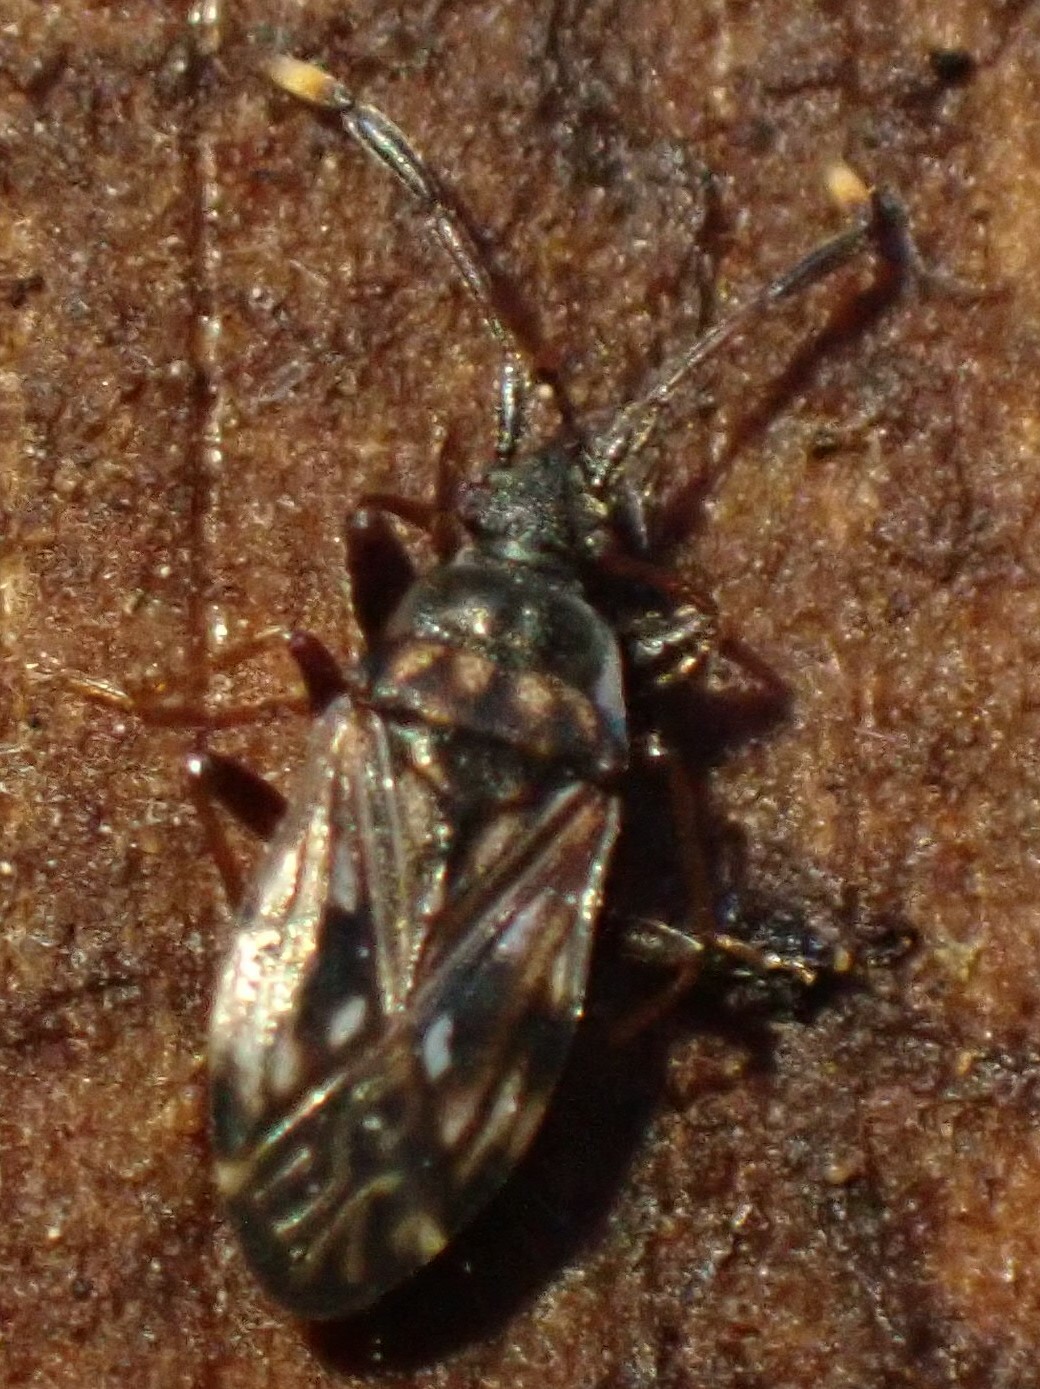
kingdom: Animalia
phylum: Arthropoda
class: Insecta
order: Hemiptera
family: Rhyparochromidae
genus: Brentiscerus
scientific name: Brentiscerus putoni
